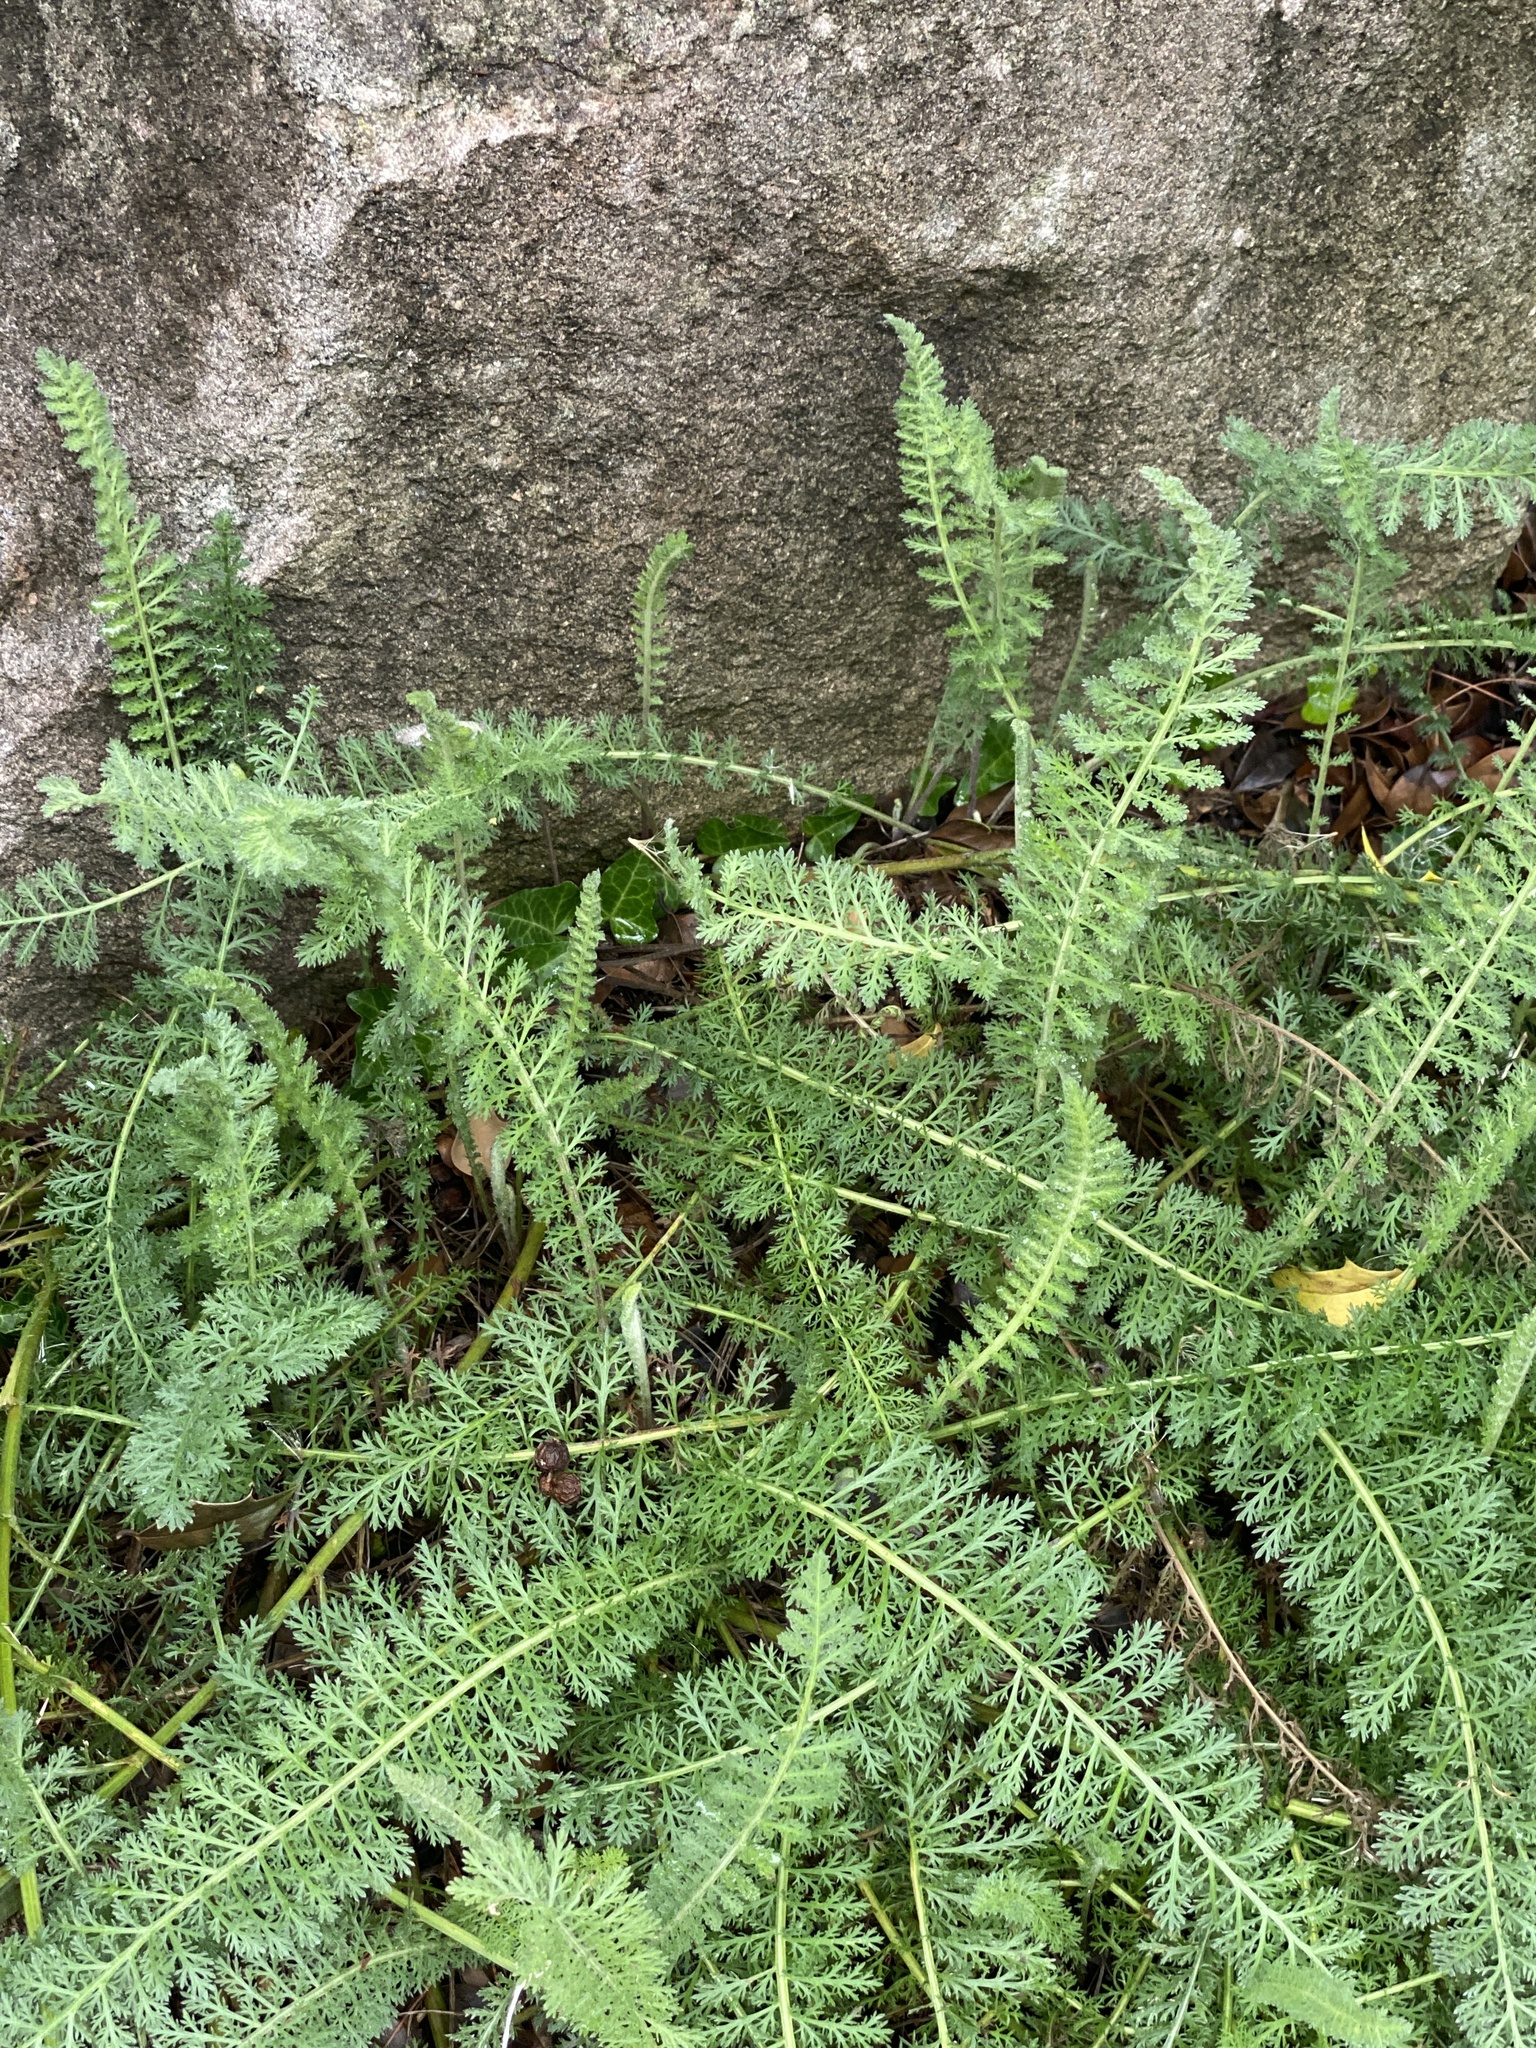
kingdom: Plantae
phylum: Tracheophyta
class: Magnoliopsida
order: Asterales
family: Asteraceae
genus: Achillea
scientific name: Achillea millefolium
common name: Yarrow
